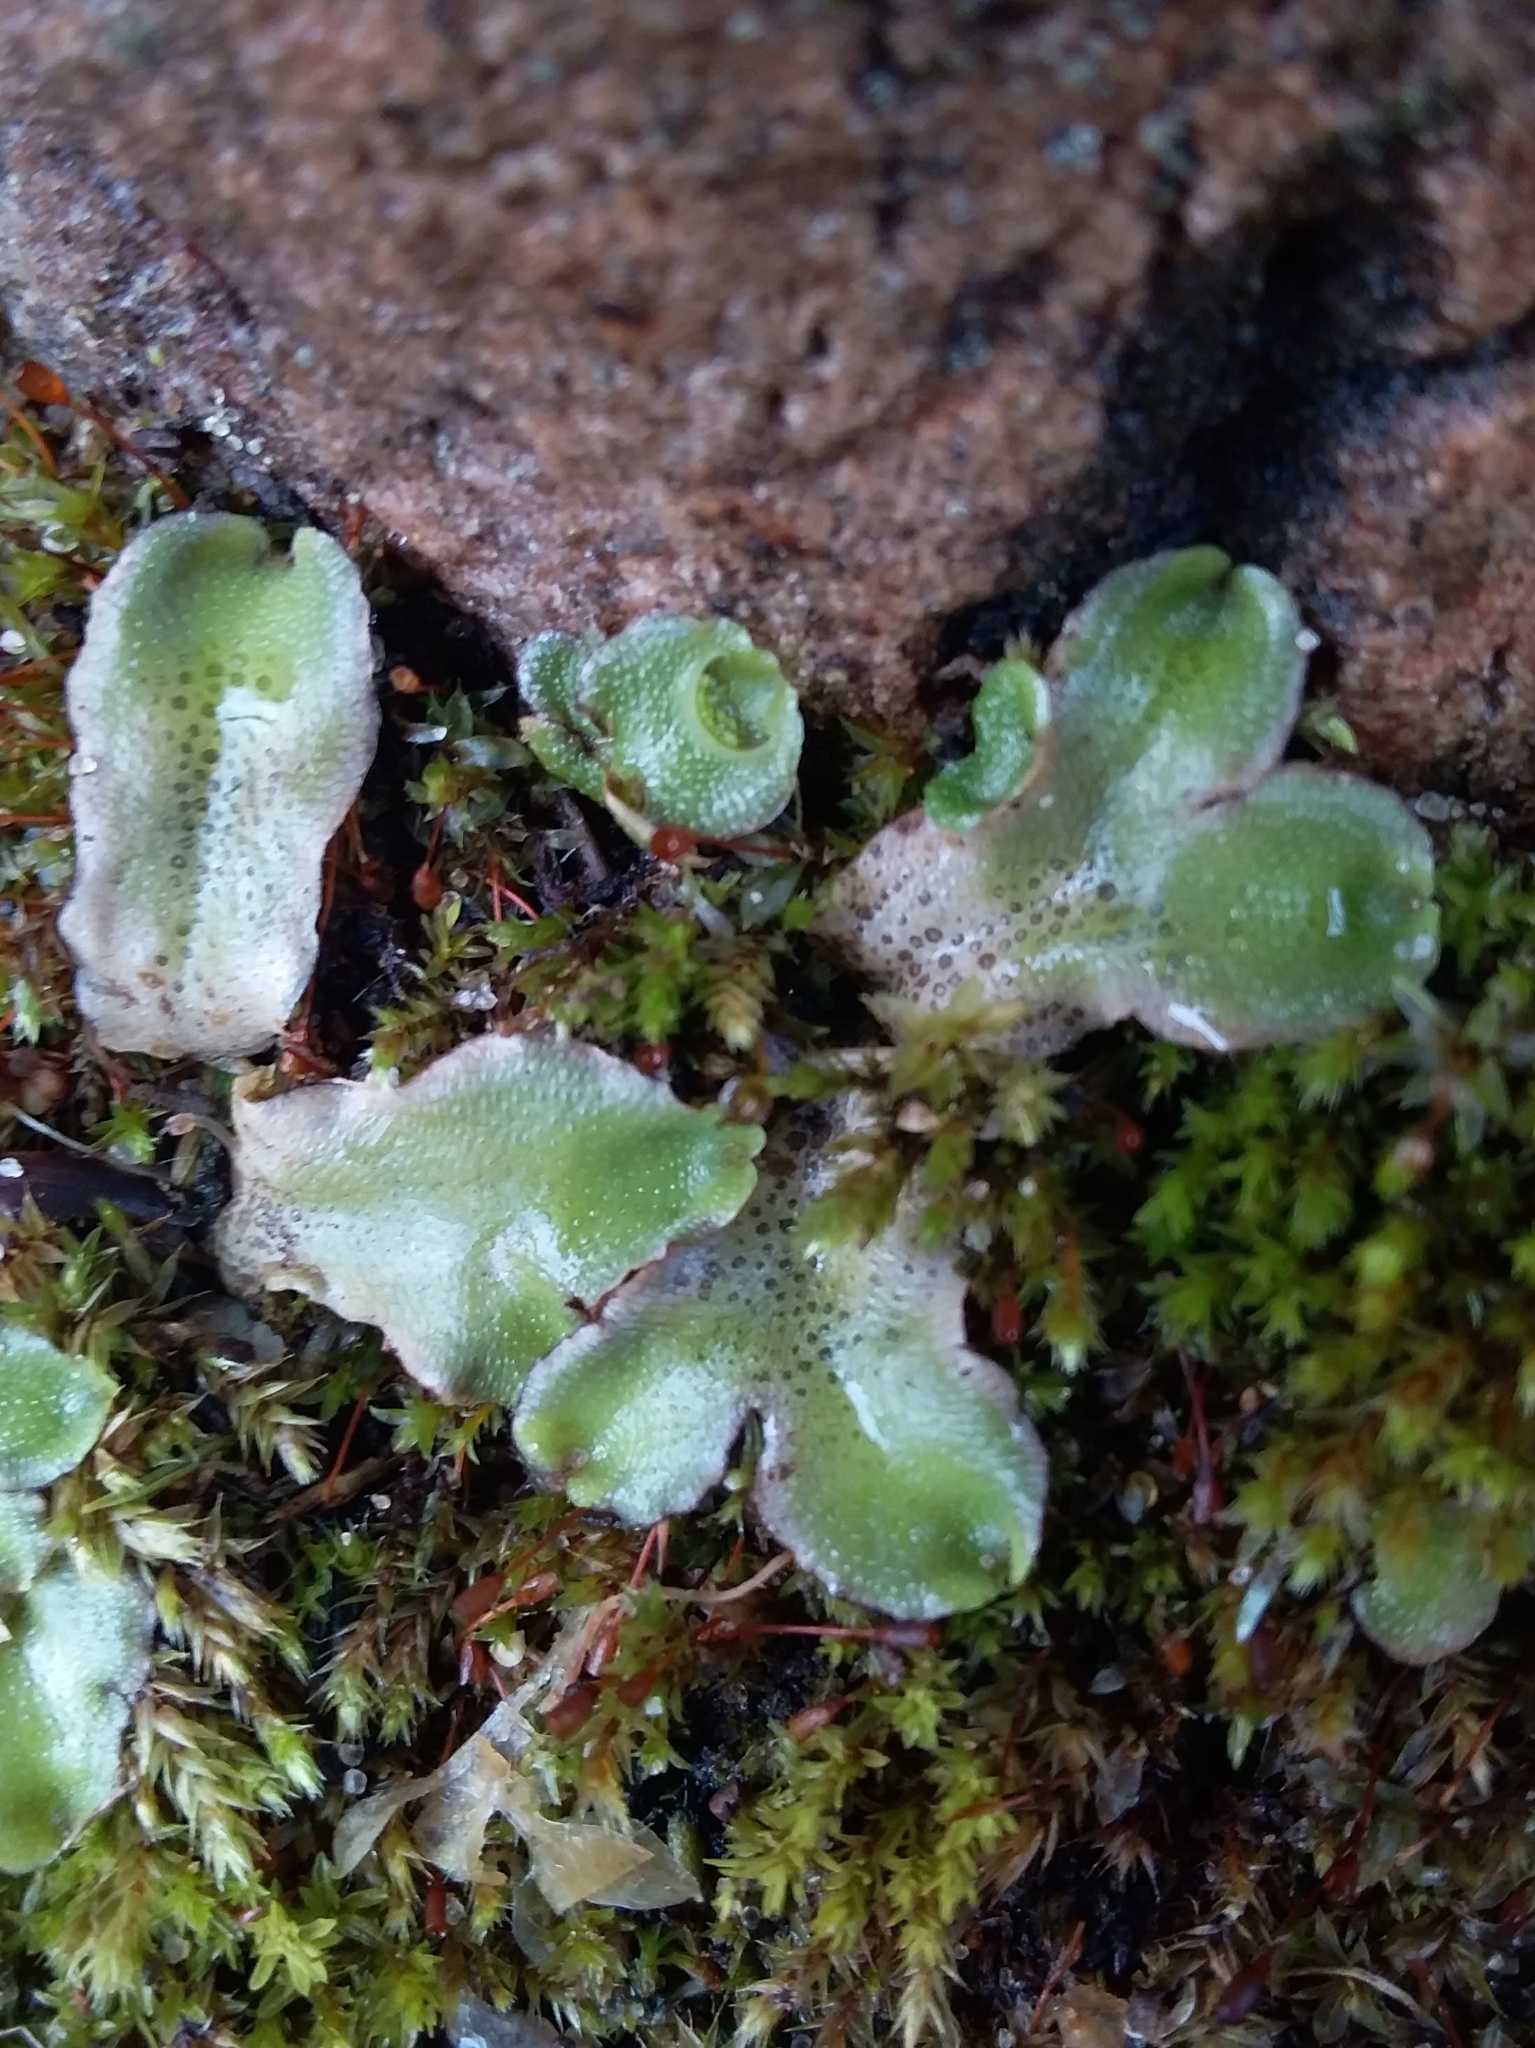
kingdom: Plantae
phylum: Marchantiophyta
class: Marchantiopsida
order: Lunulariales
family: Lunulariaceae
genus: Lunularia
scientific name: Lunularia cruciata
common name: Crescent-cup liverwort
